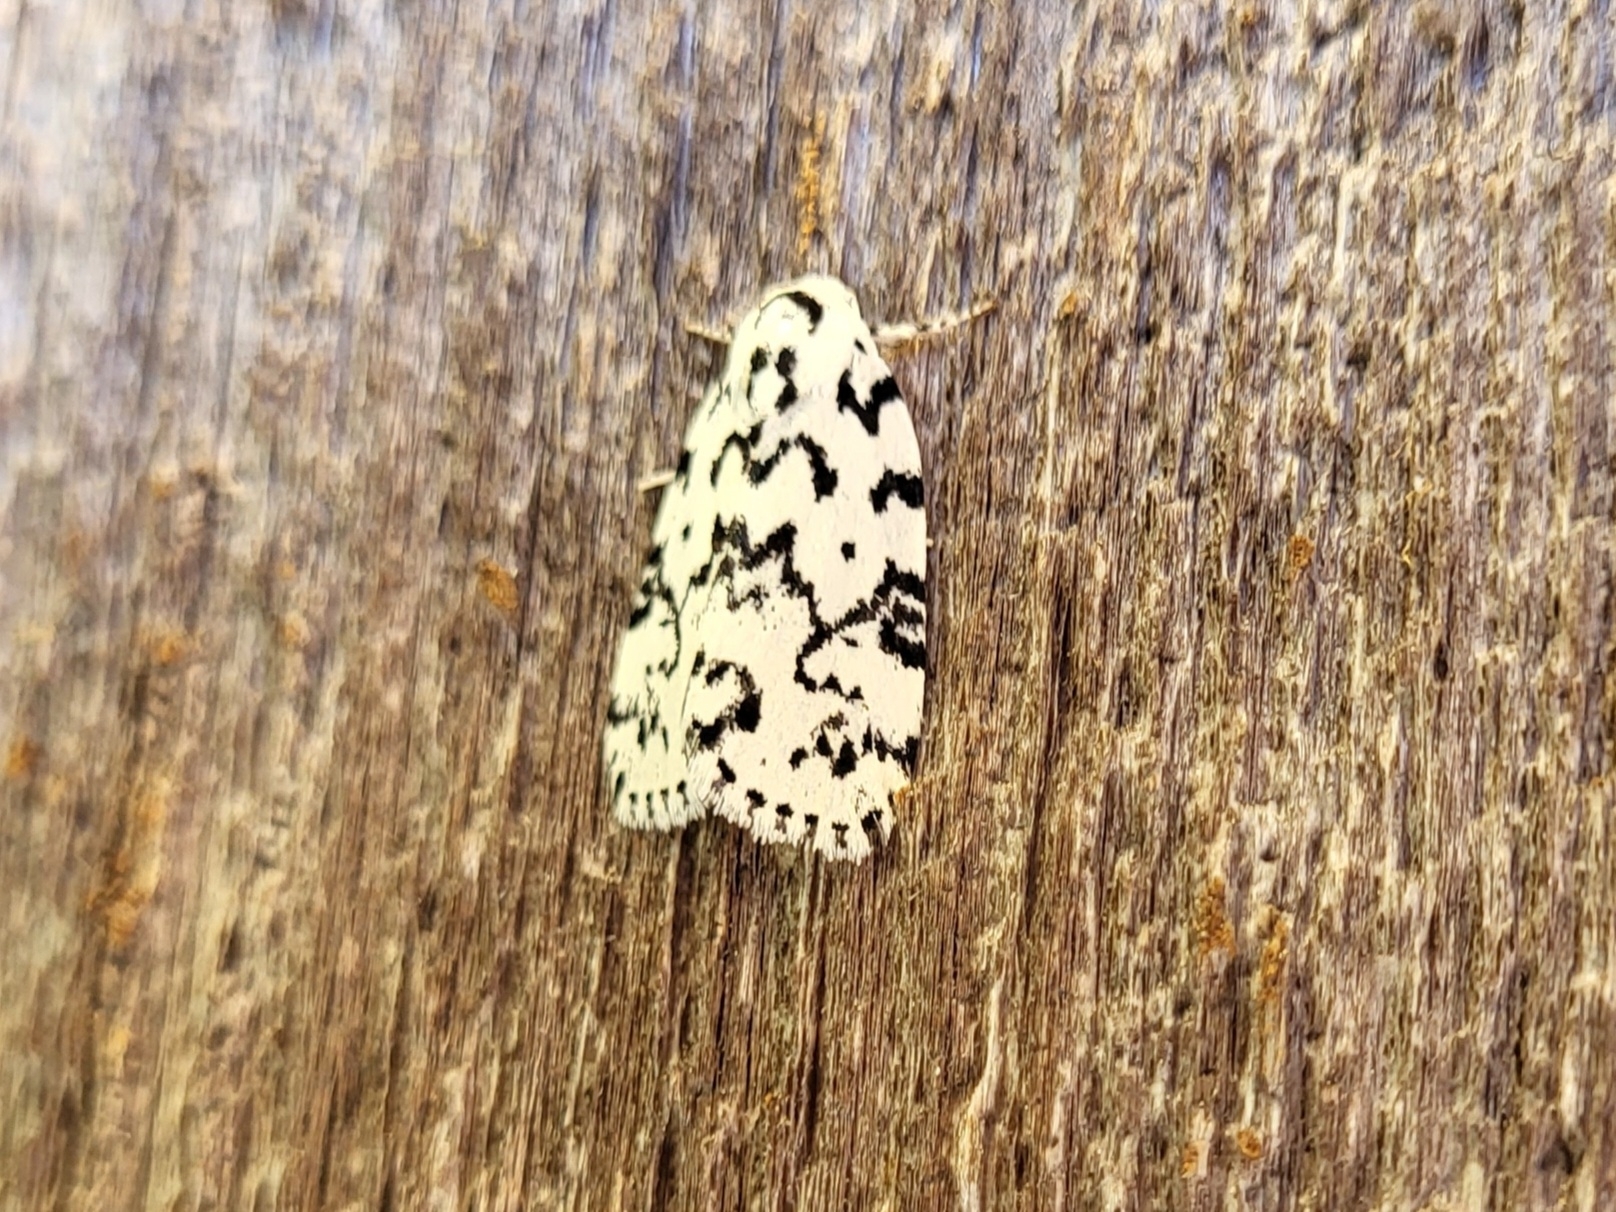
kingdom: Animalia
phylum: Arthropoda
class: Insecta
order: Lepidoptera
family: Noctuidae
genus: Polygrammate
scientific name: Polygrammate hebraeicum
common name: Hebrew moth
